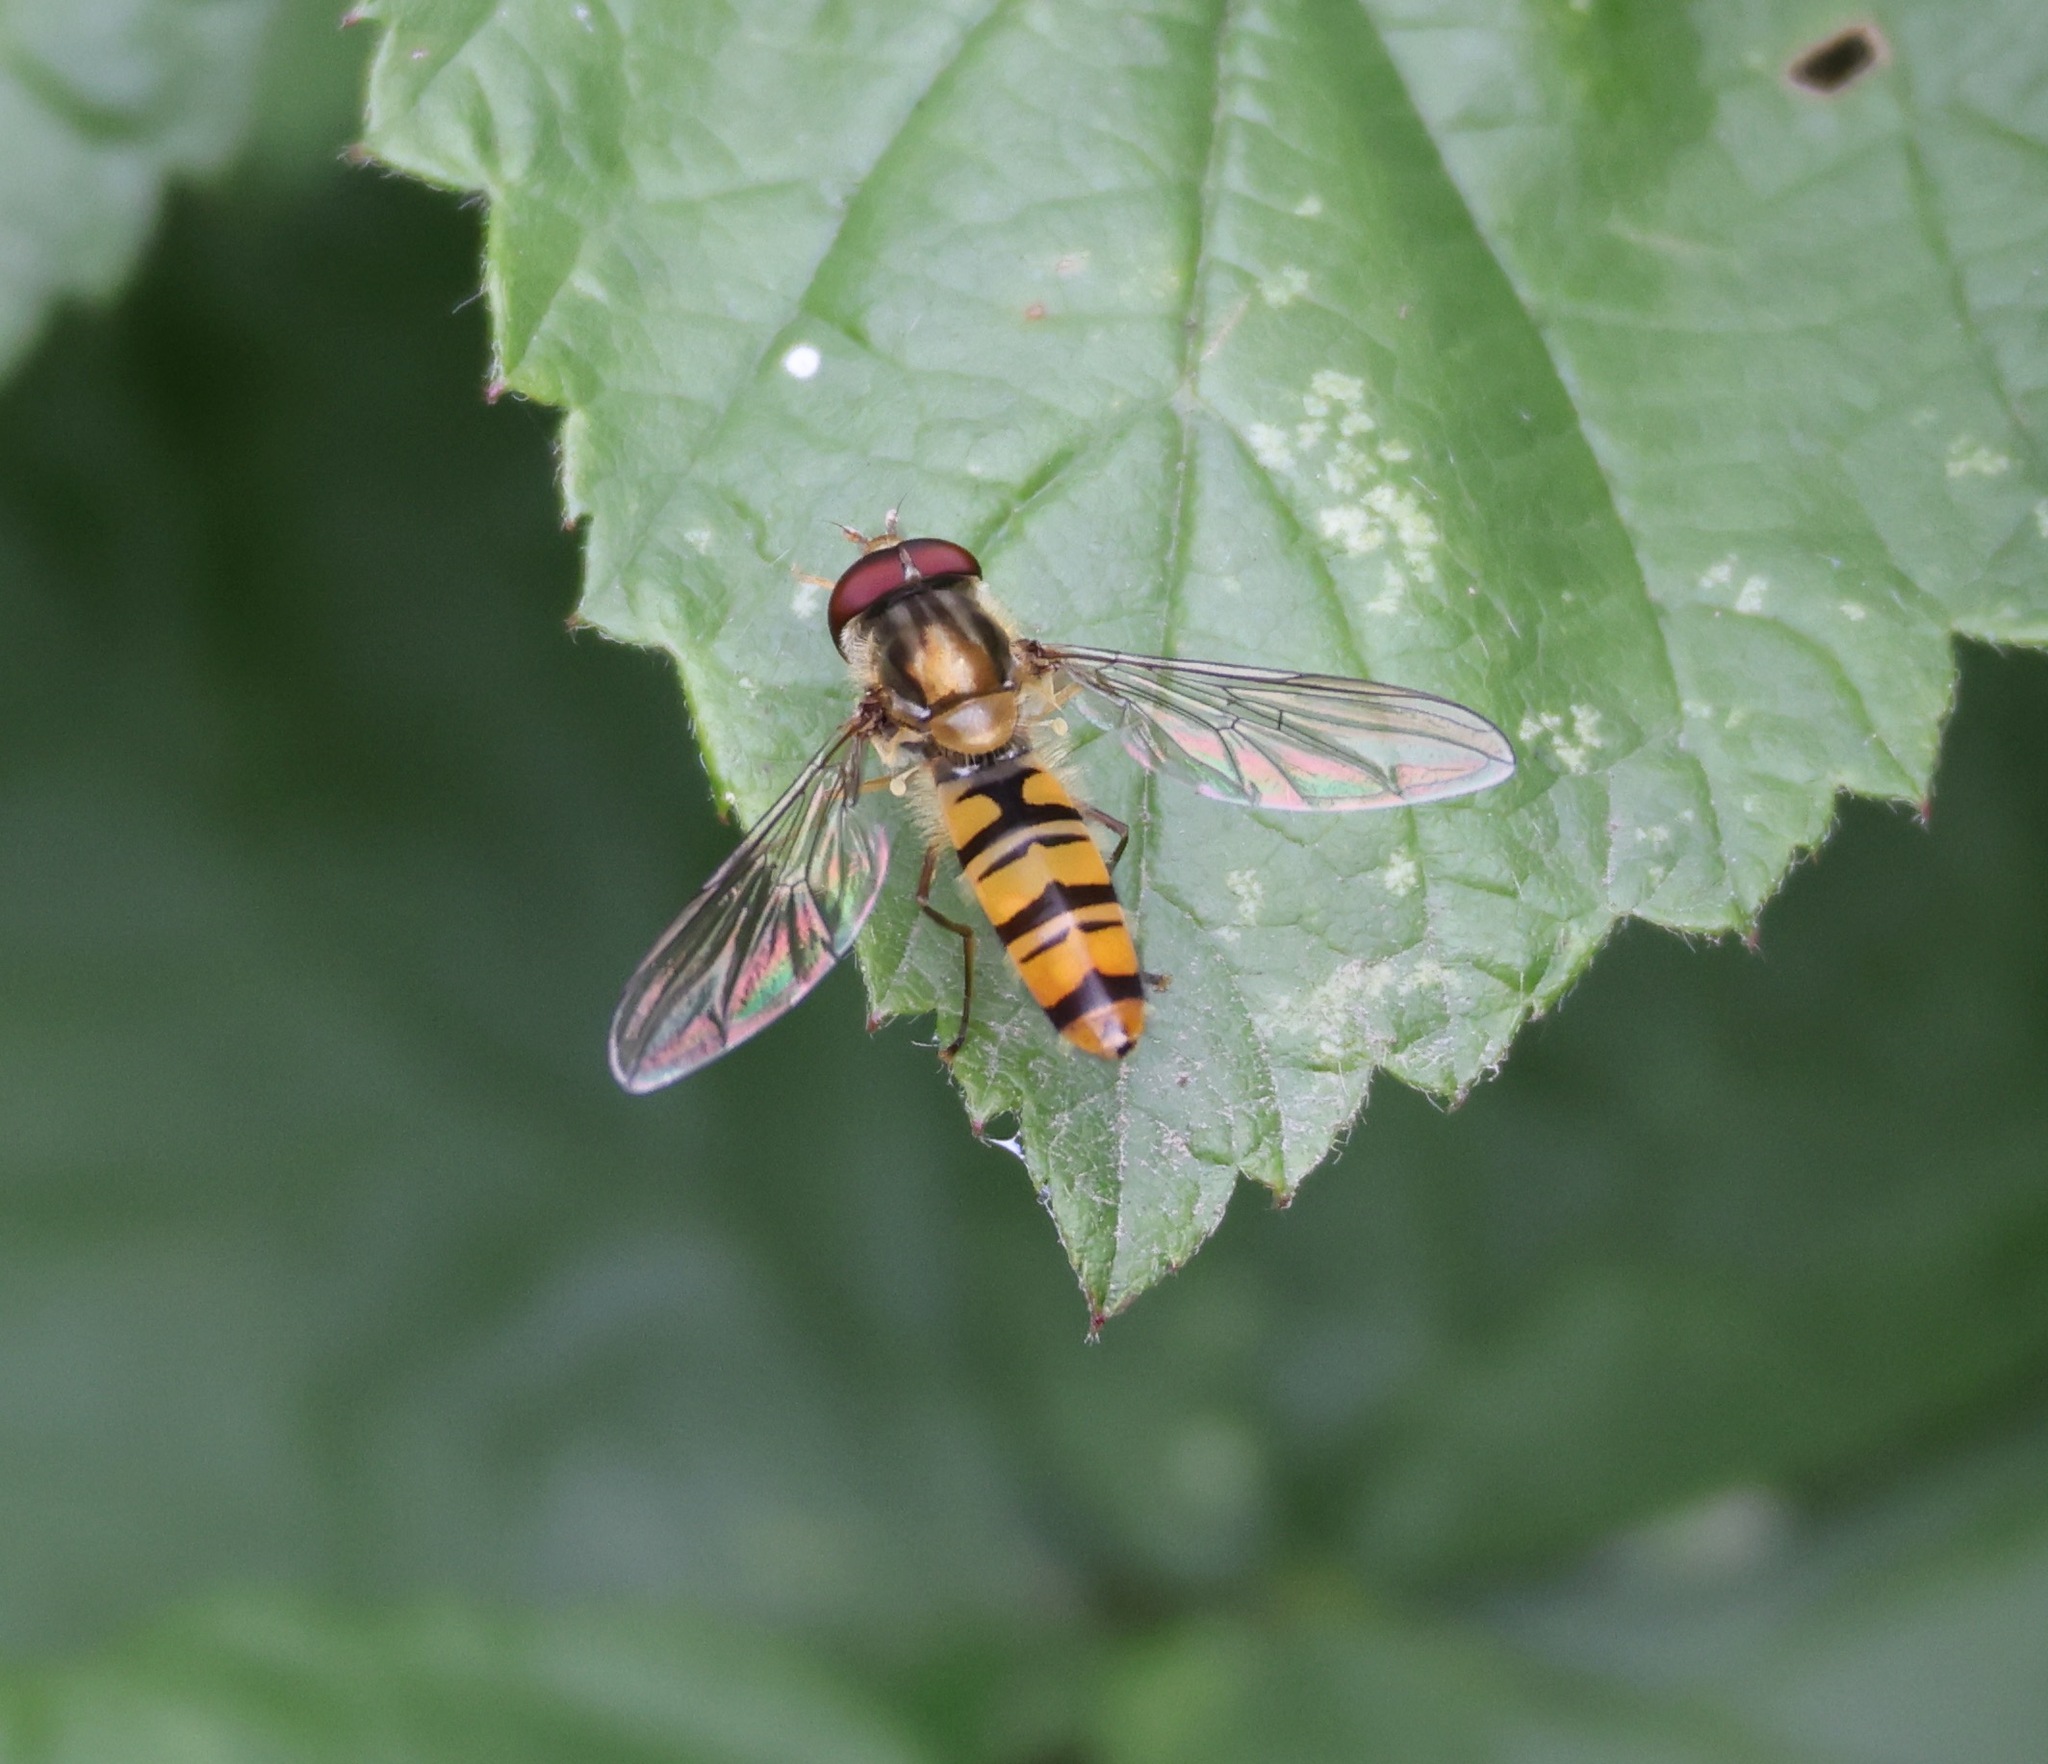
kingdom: Animalia
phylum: Arthropoda
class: Insecta
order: Diptera
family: Syrphidae
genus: Episyrphus
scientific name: Episyrphus balteatus
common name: Marmalade hoverfly
